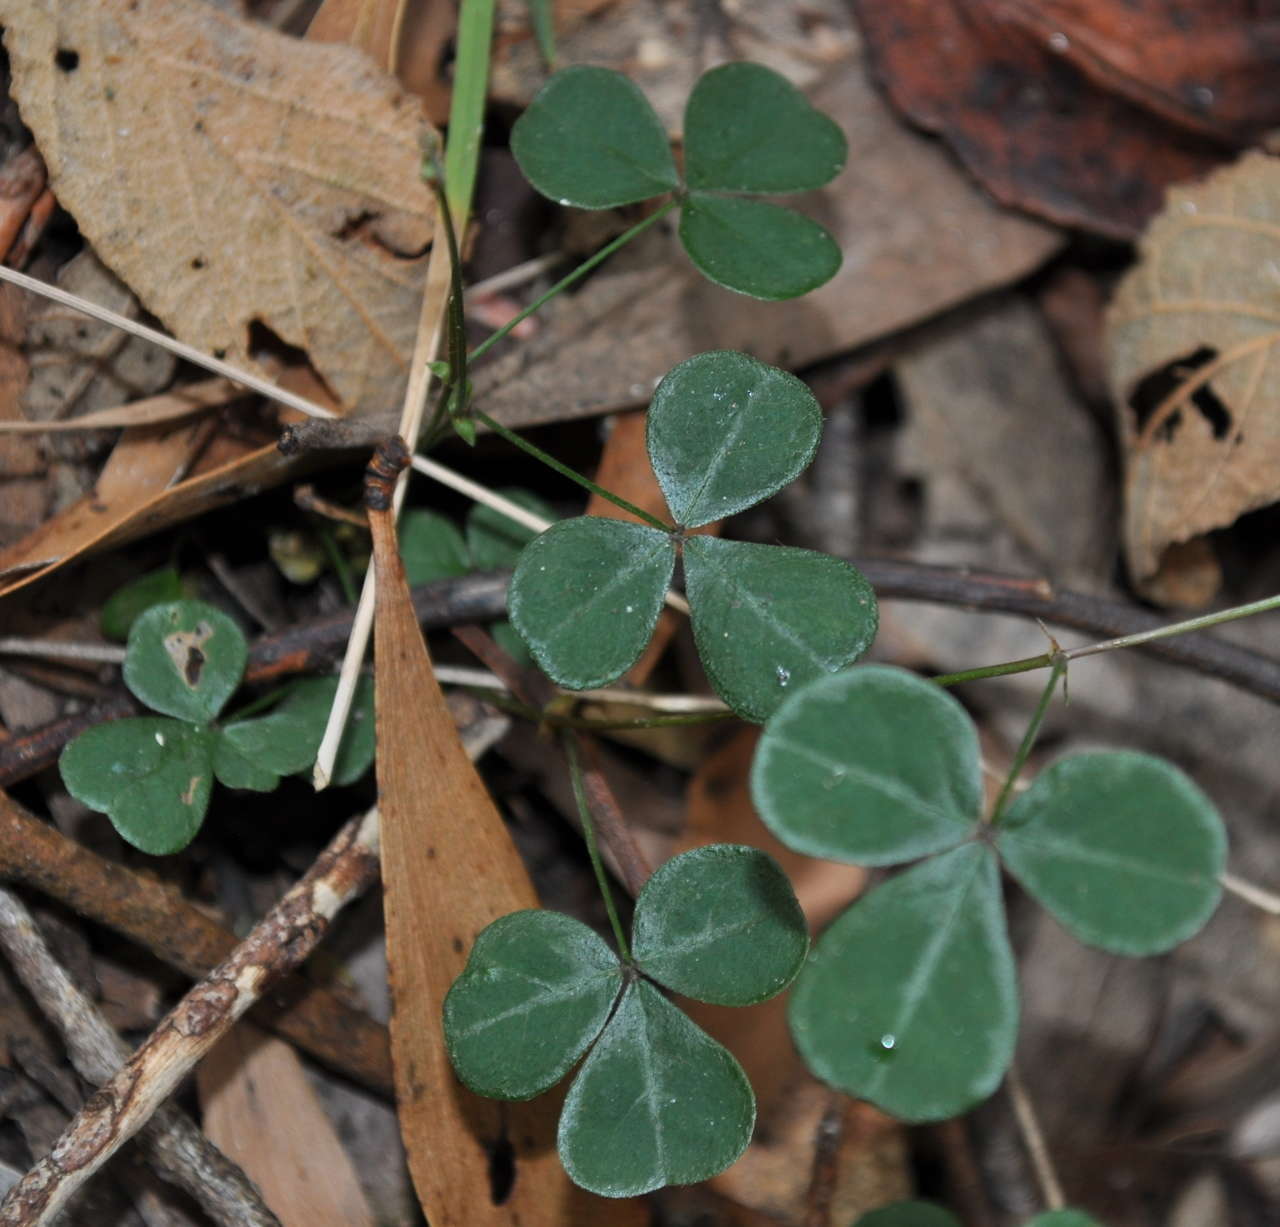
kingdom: Plantae
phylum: Tracheophyta
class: Magnoliopsida
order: Fabales
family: Fabaceae
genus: Pullenia
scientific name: Pullenia gunnii
